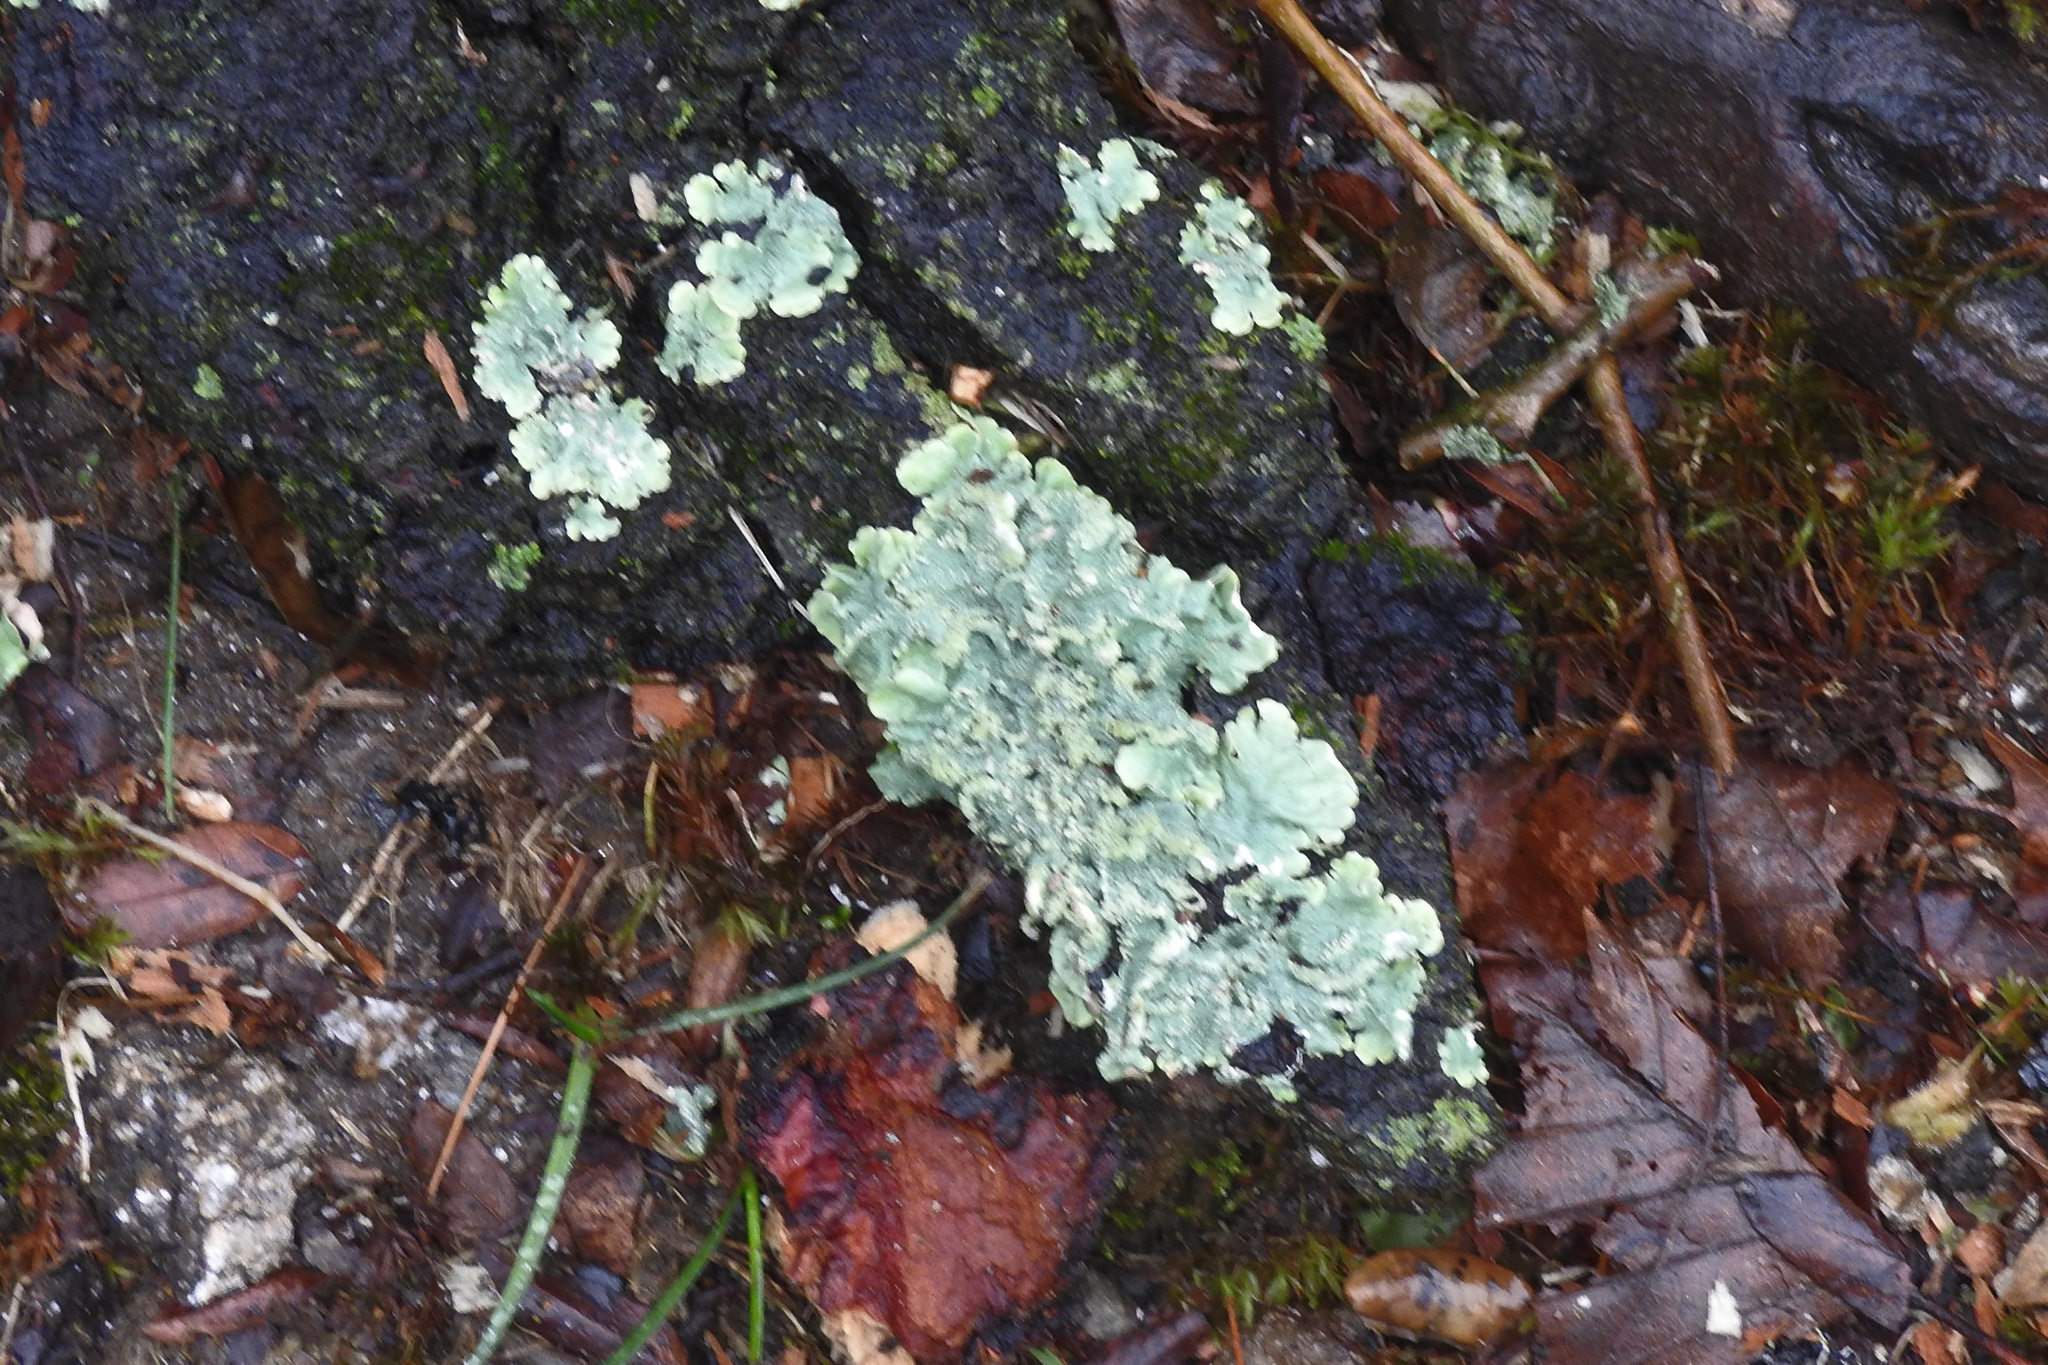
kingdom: Fungi
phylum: Ascomycota
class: Lecanoromycetes
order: Lecanorales
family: Parmeliaceae
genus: Flavoparmelia
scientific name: Flavoparmelia caperata
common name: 40-mile per hour lichen
